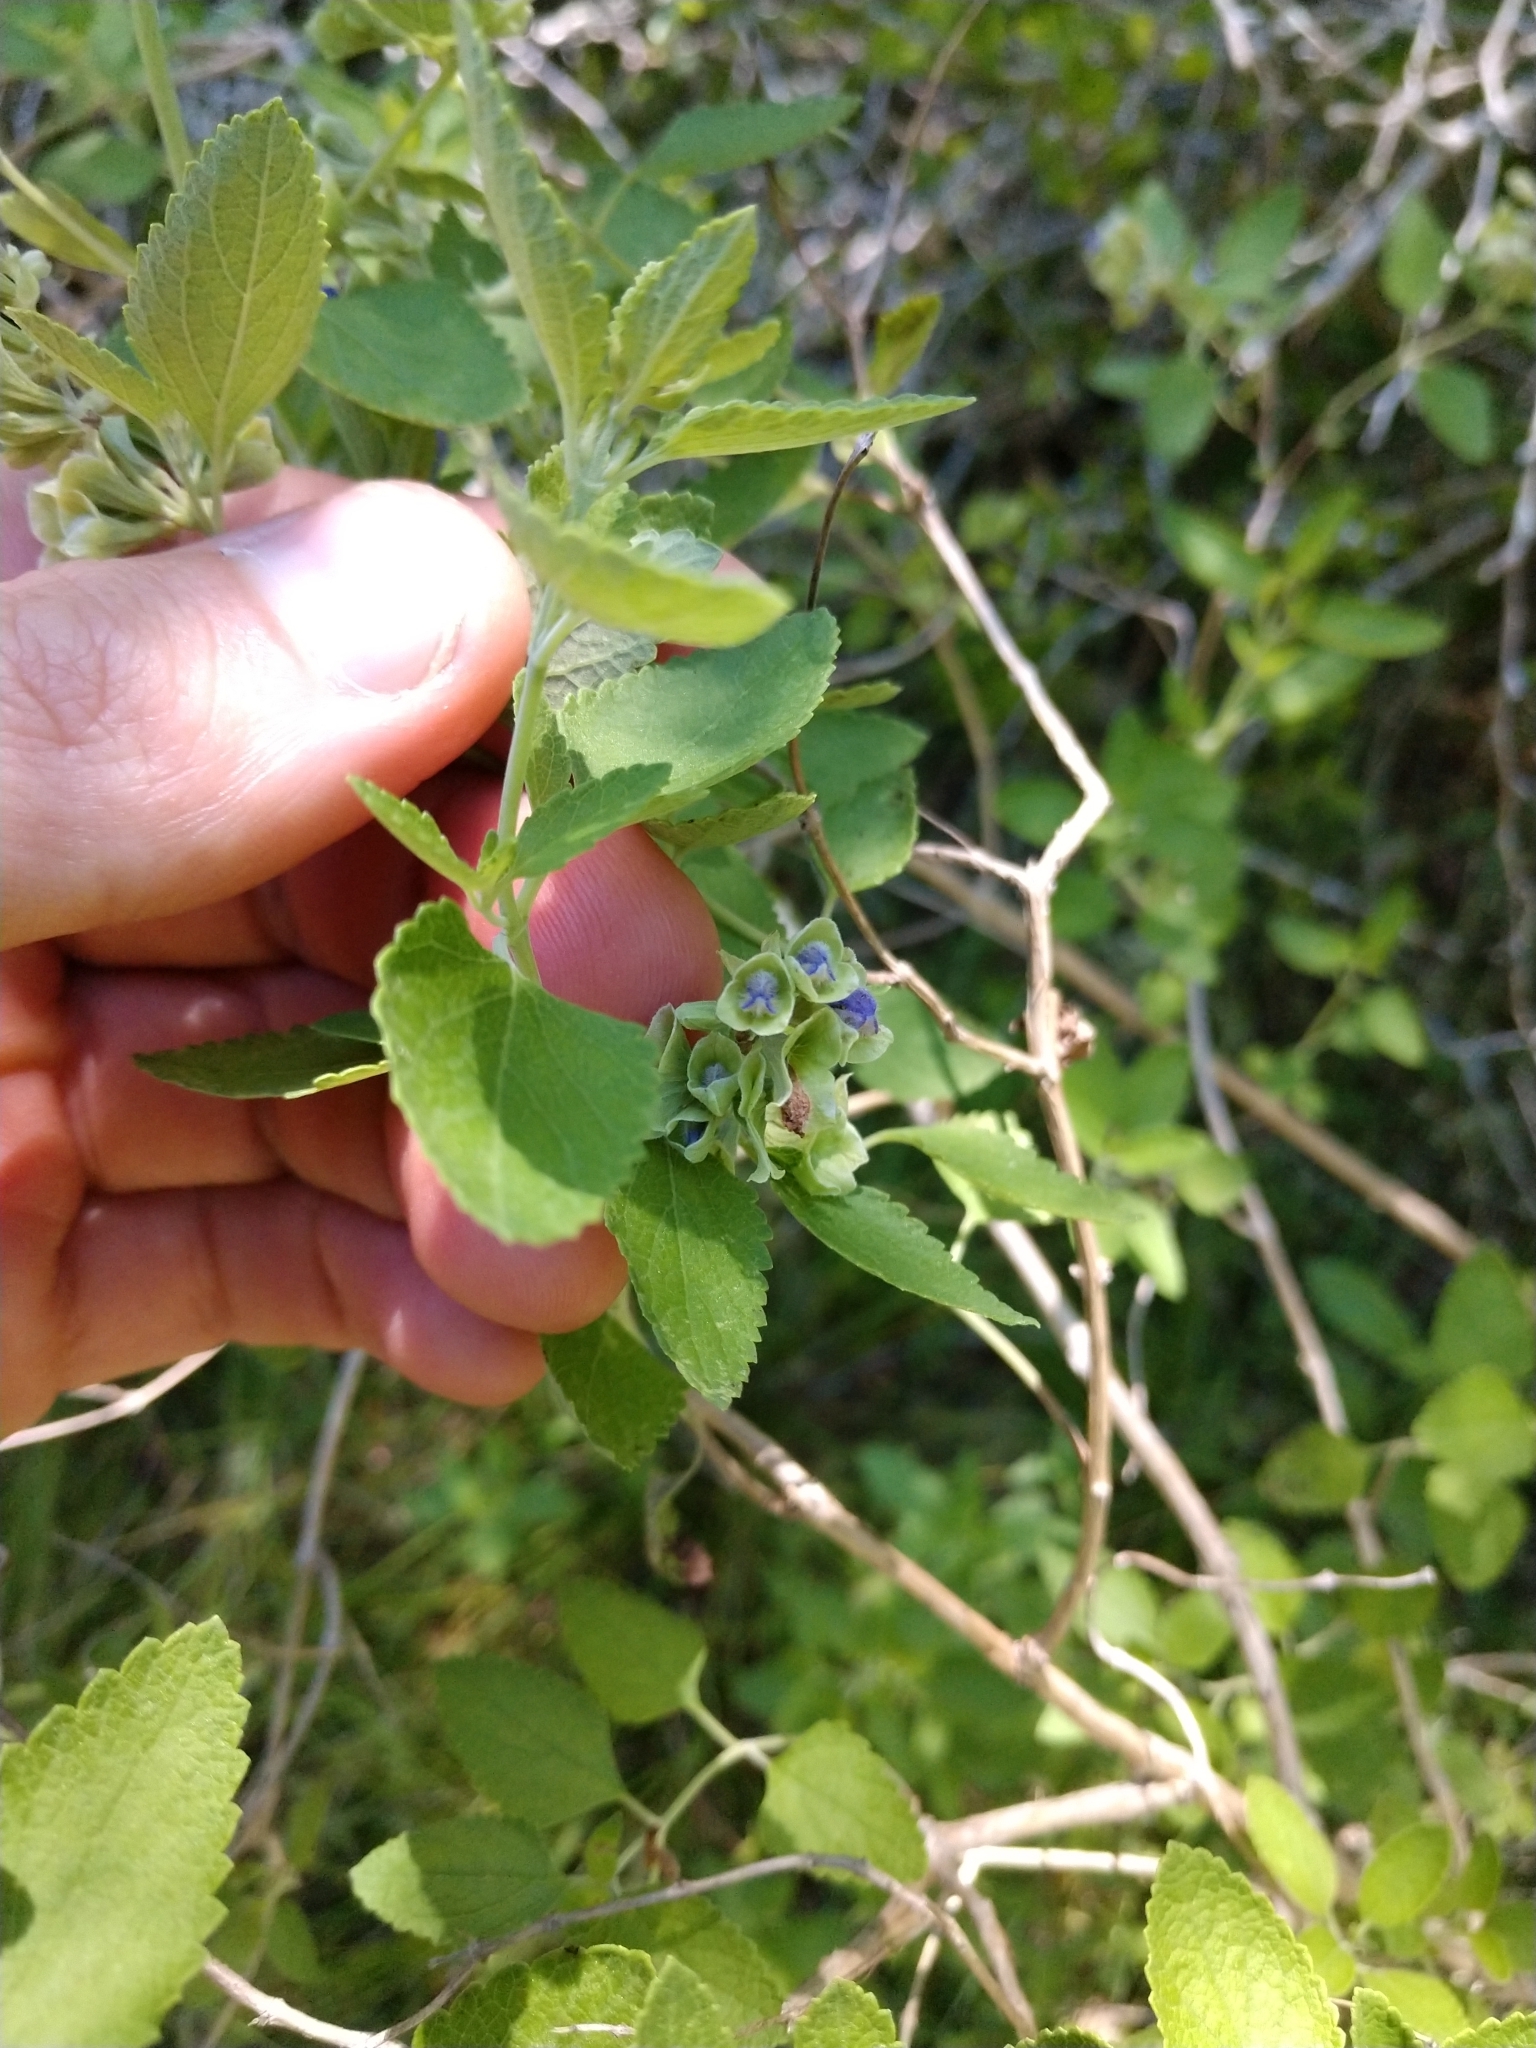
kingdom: Plantae
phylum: Tracheophyta
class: Magnoliopsida
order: Lamiales
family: Lamiaceae
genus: Salvia
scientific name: Salvia ballotiflora
